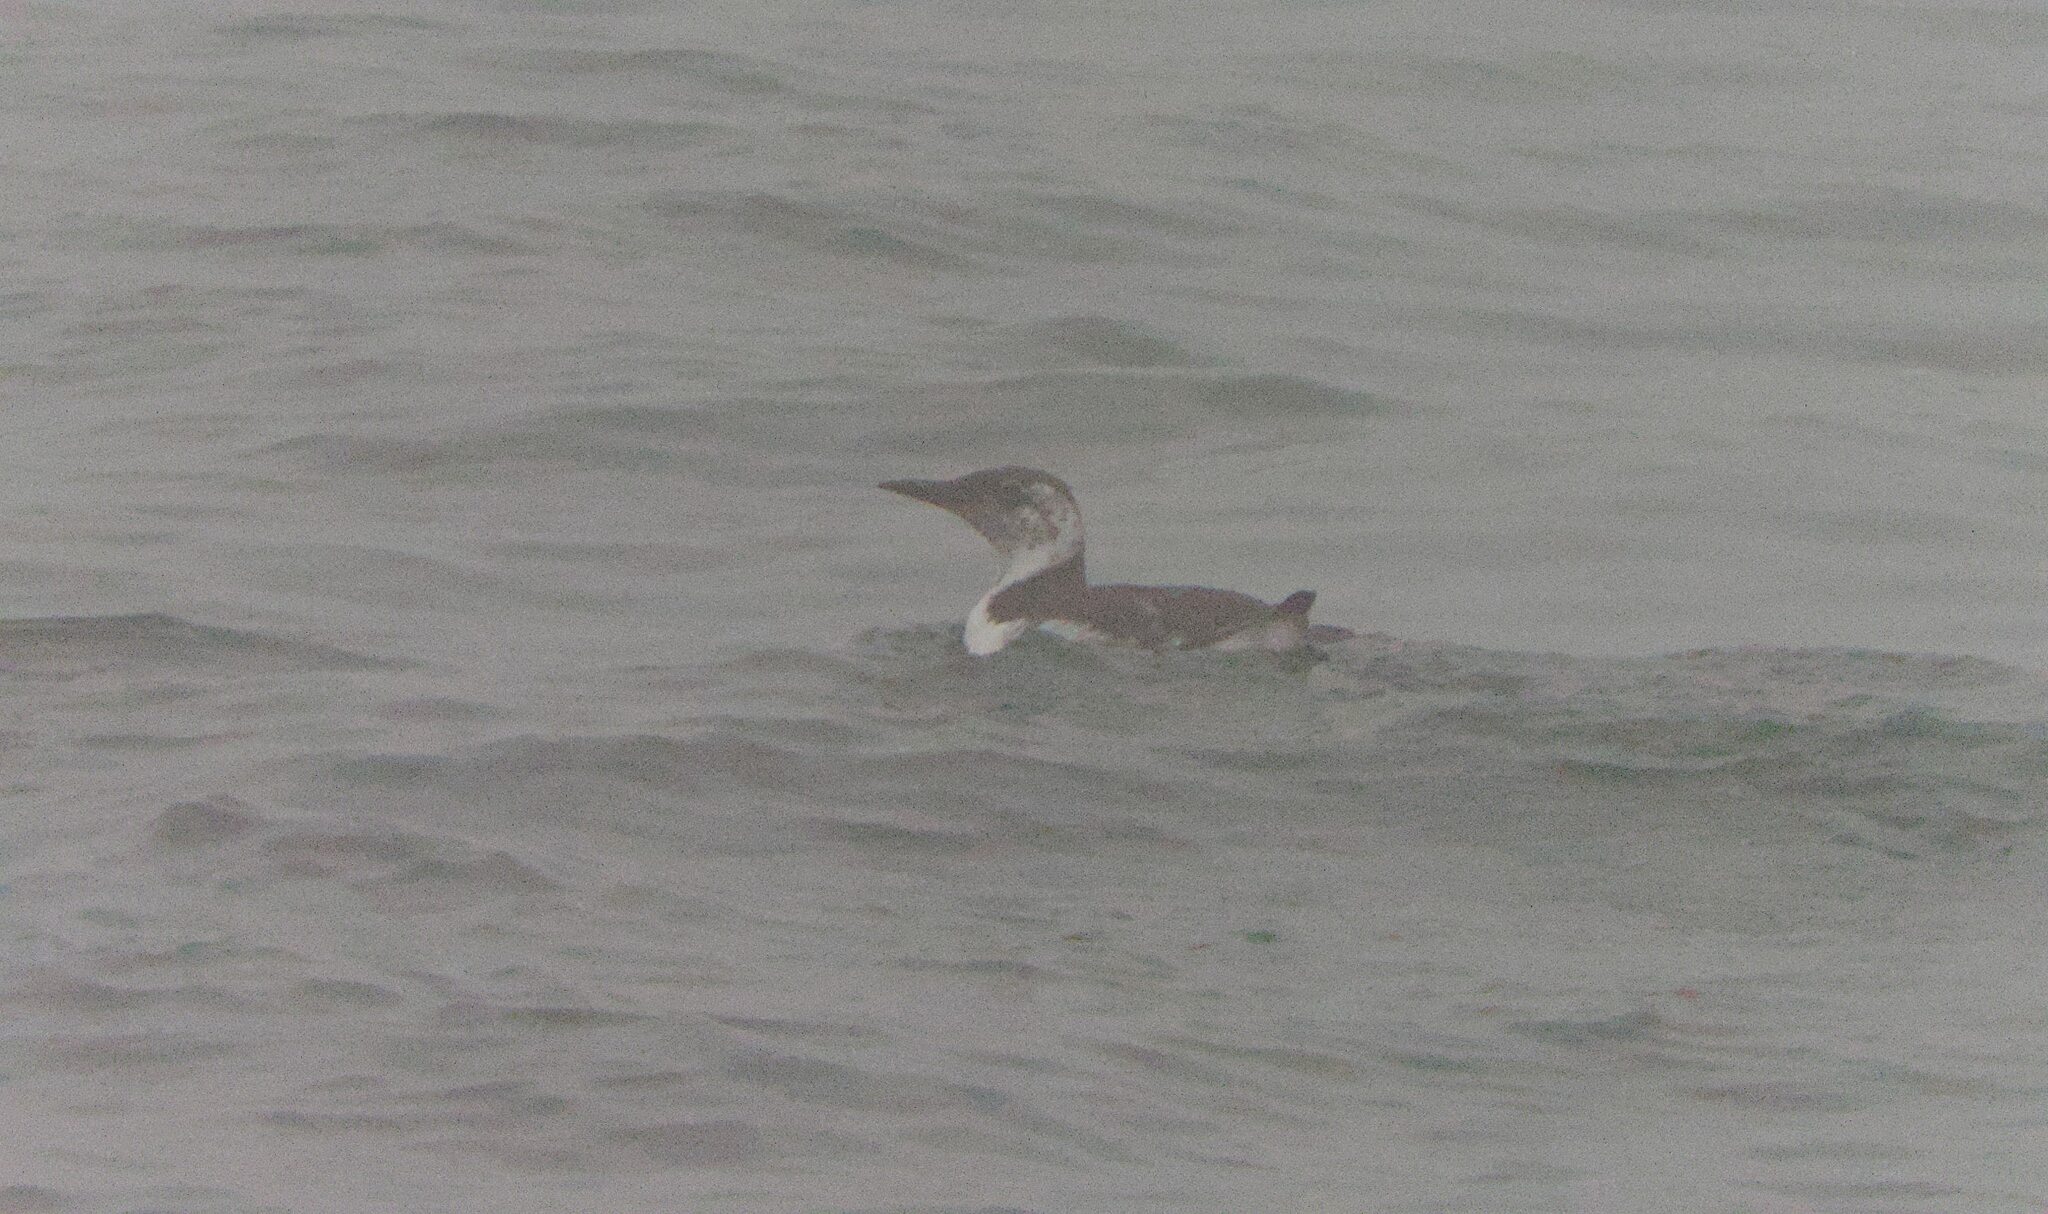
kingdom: Animalia
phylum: Chordata
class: Aves
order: Charadriiformes
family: Alcidae
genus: Uria
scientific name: Uria aalge
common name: Common murre
